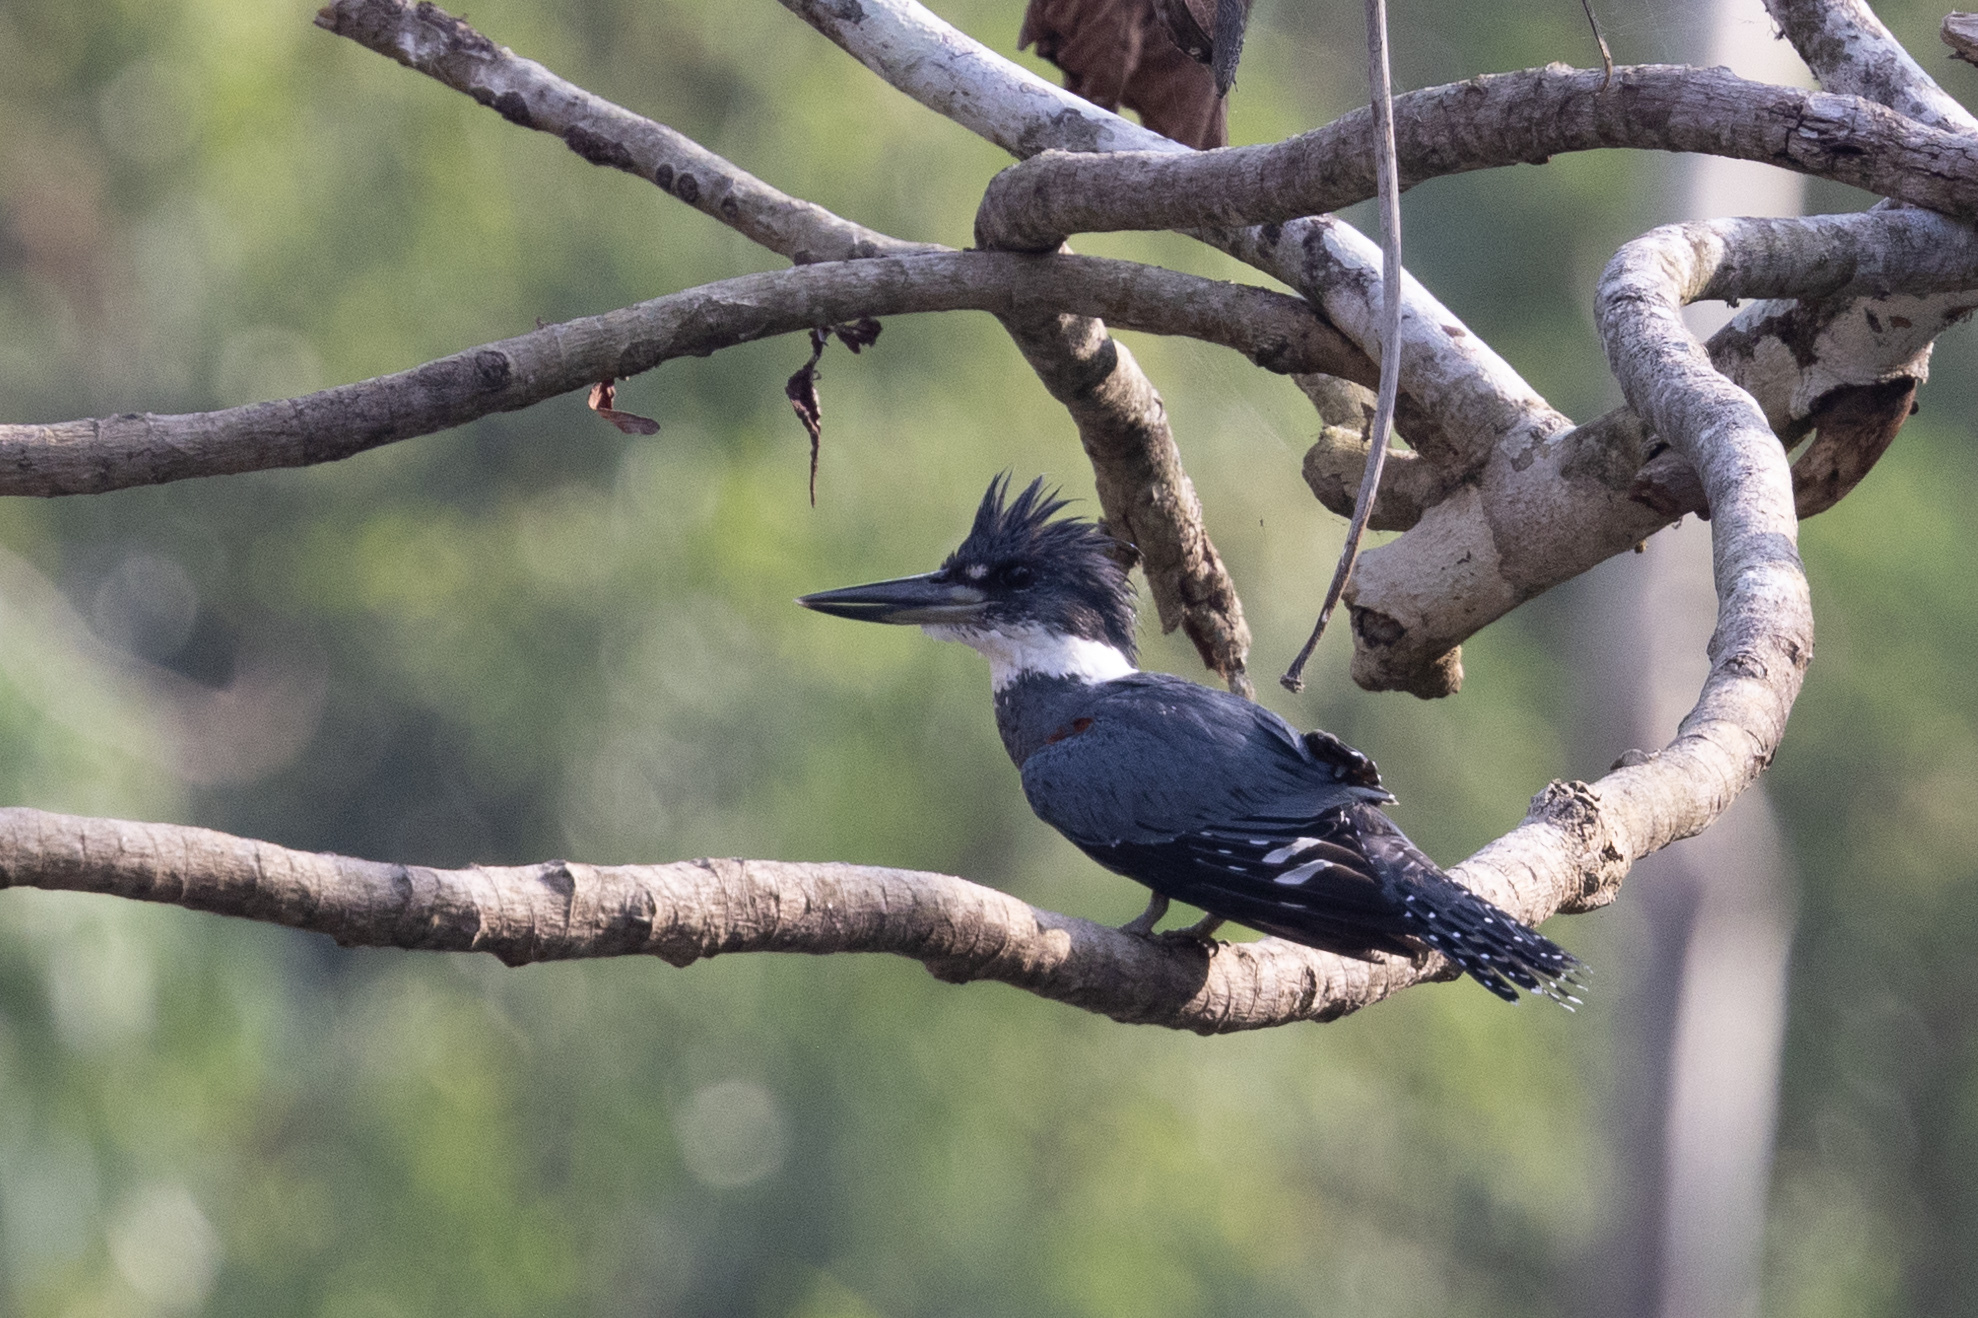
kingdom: Animalia
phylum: Chordata
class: Aves
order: Coraciiformes
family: Alcedinidae
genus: Megaceryle
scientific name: Megaceryle torquata
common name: Ringed kingfisher
